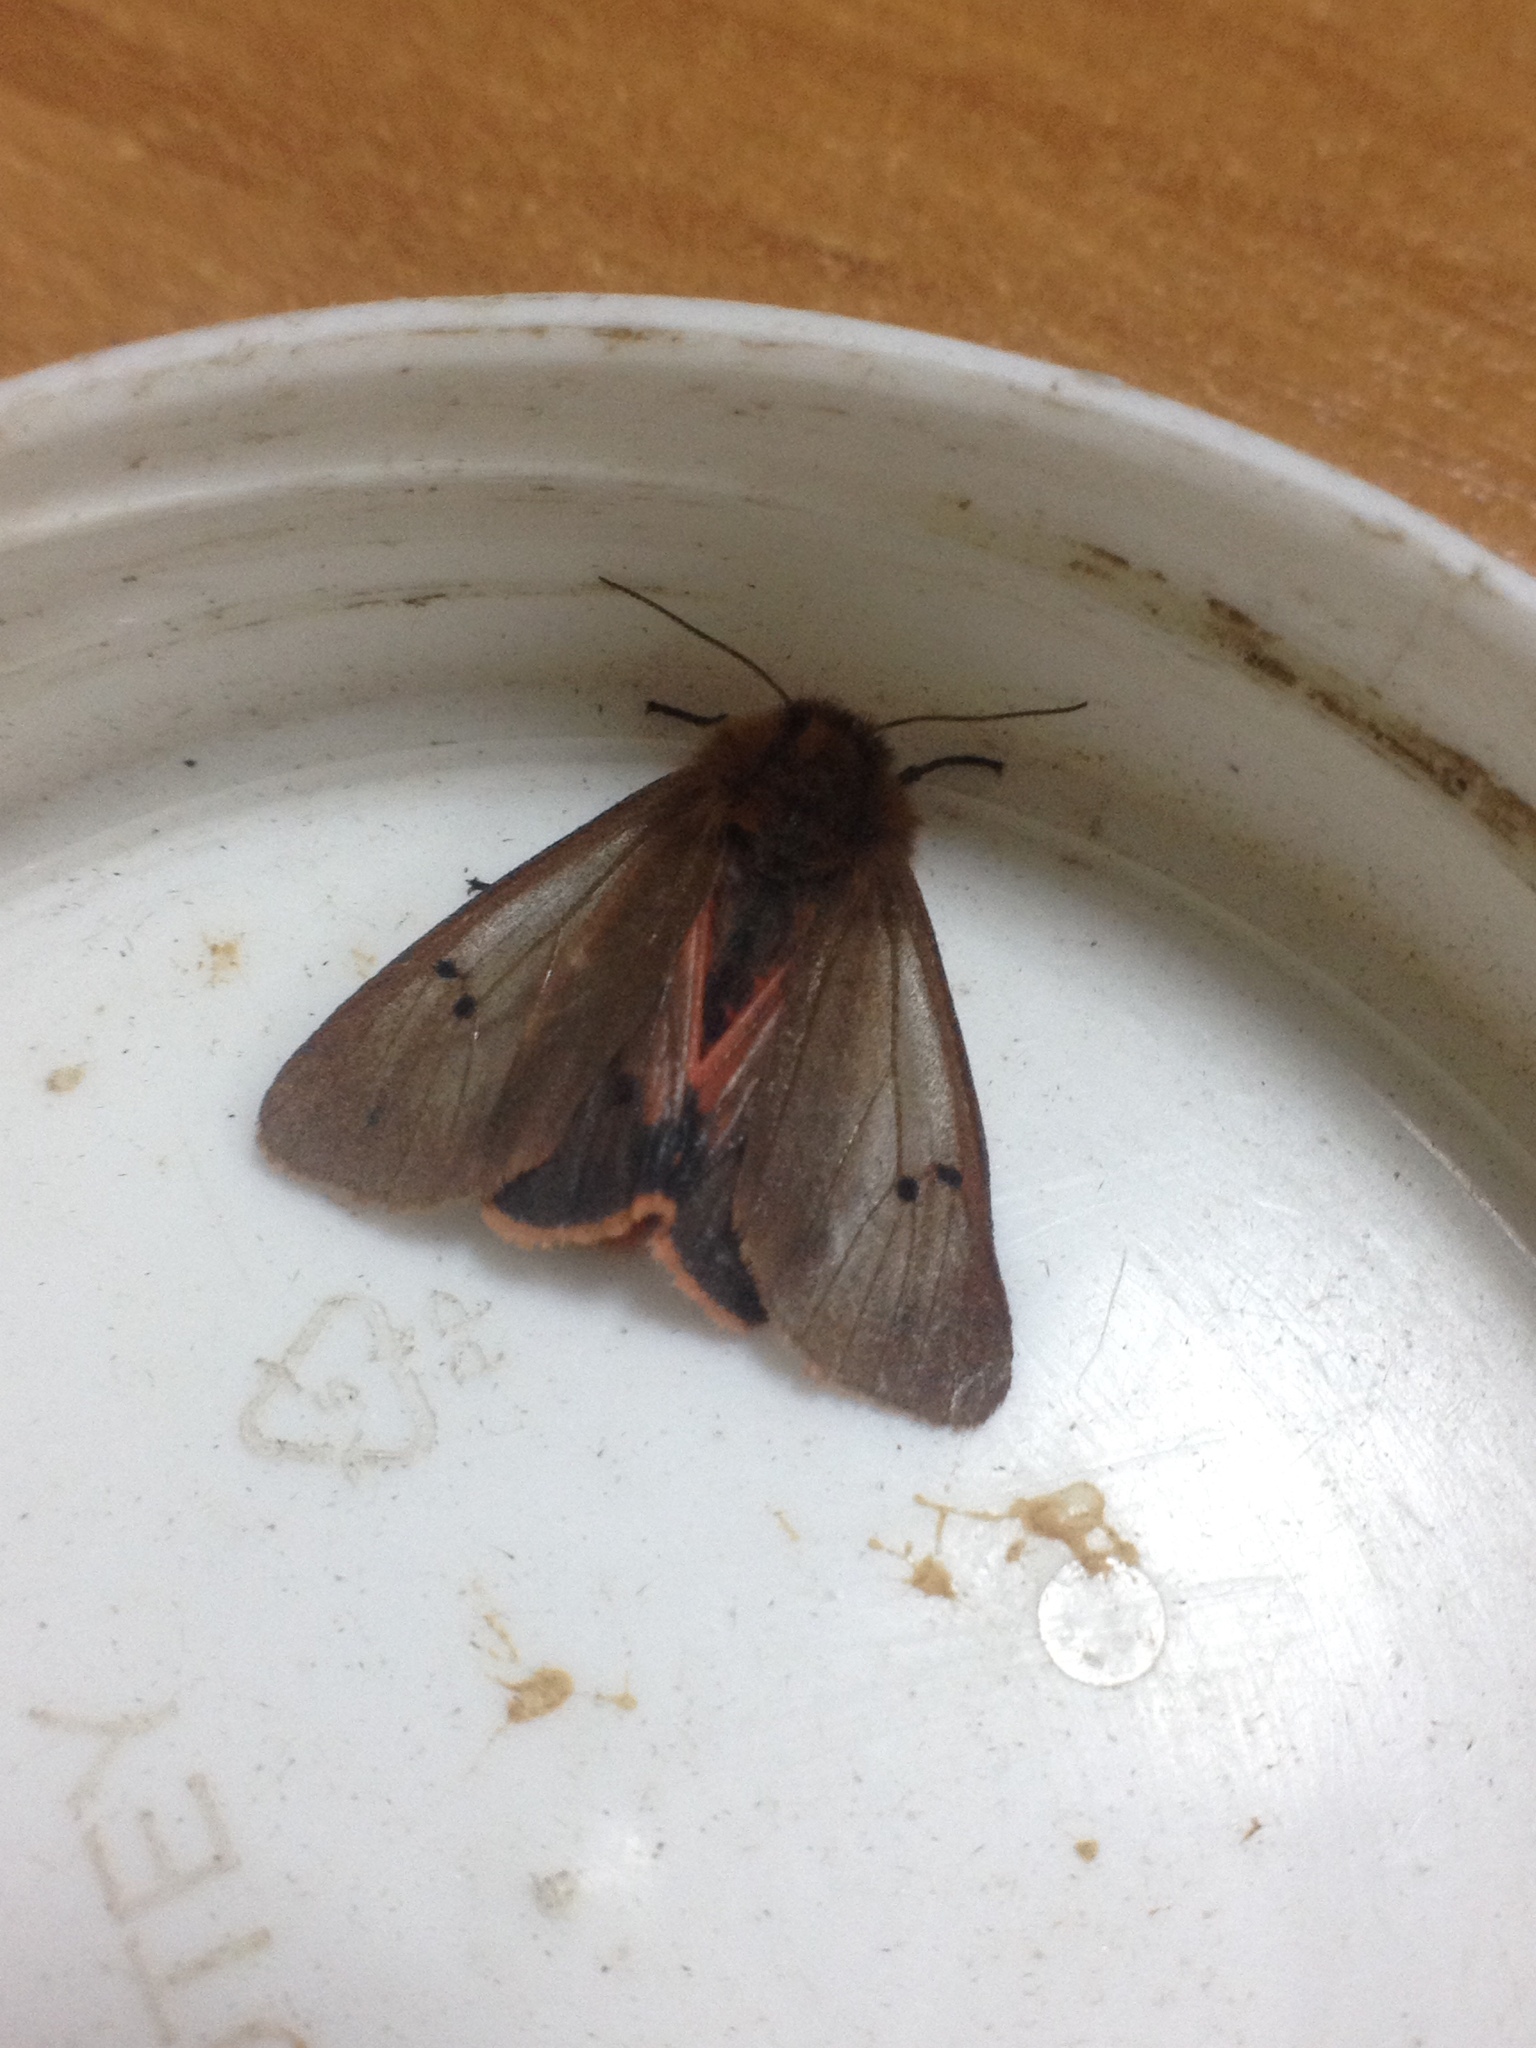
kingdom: Animalia
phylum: Arthropoda
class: Insecta
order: Lepidoptera
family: Erebidae
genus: Phragmatobia
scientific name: Phragmatobia fuliginosa
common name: Ruby tiger
